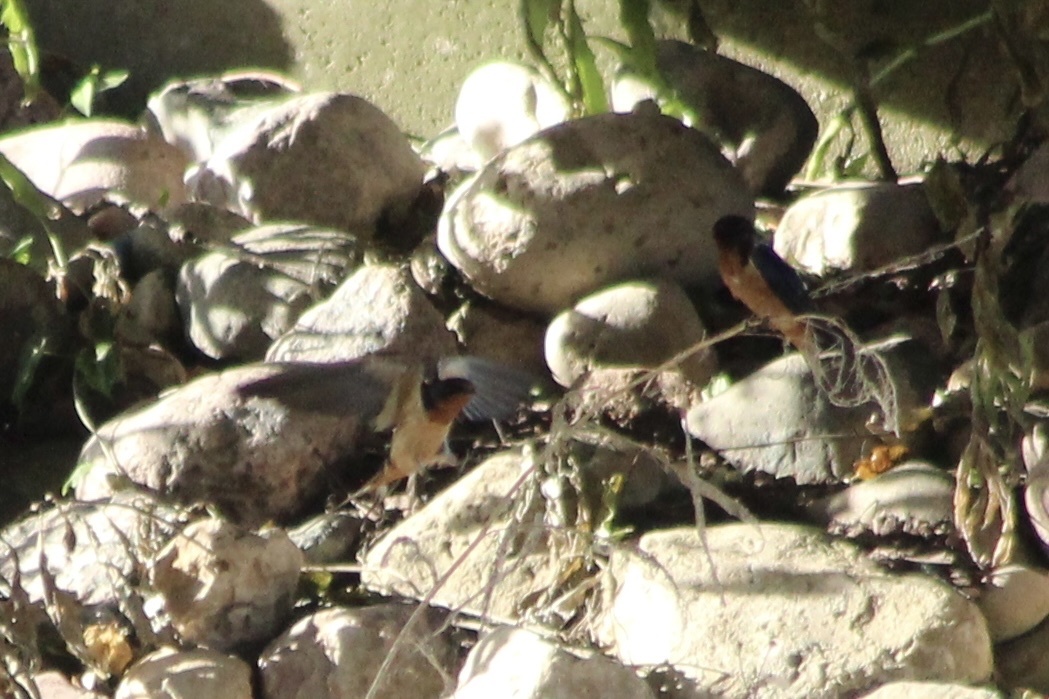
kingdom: Animalia
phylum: Chordata
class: Aves
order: Passeriformes
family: Hirundinidae
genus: Hirundo
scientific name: Hirundo rustica
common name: Barn swallow
